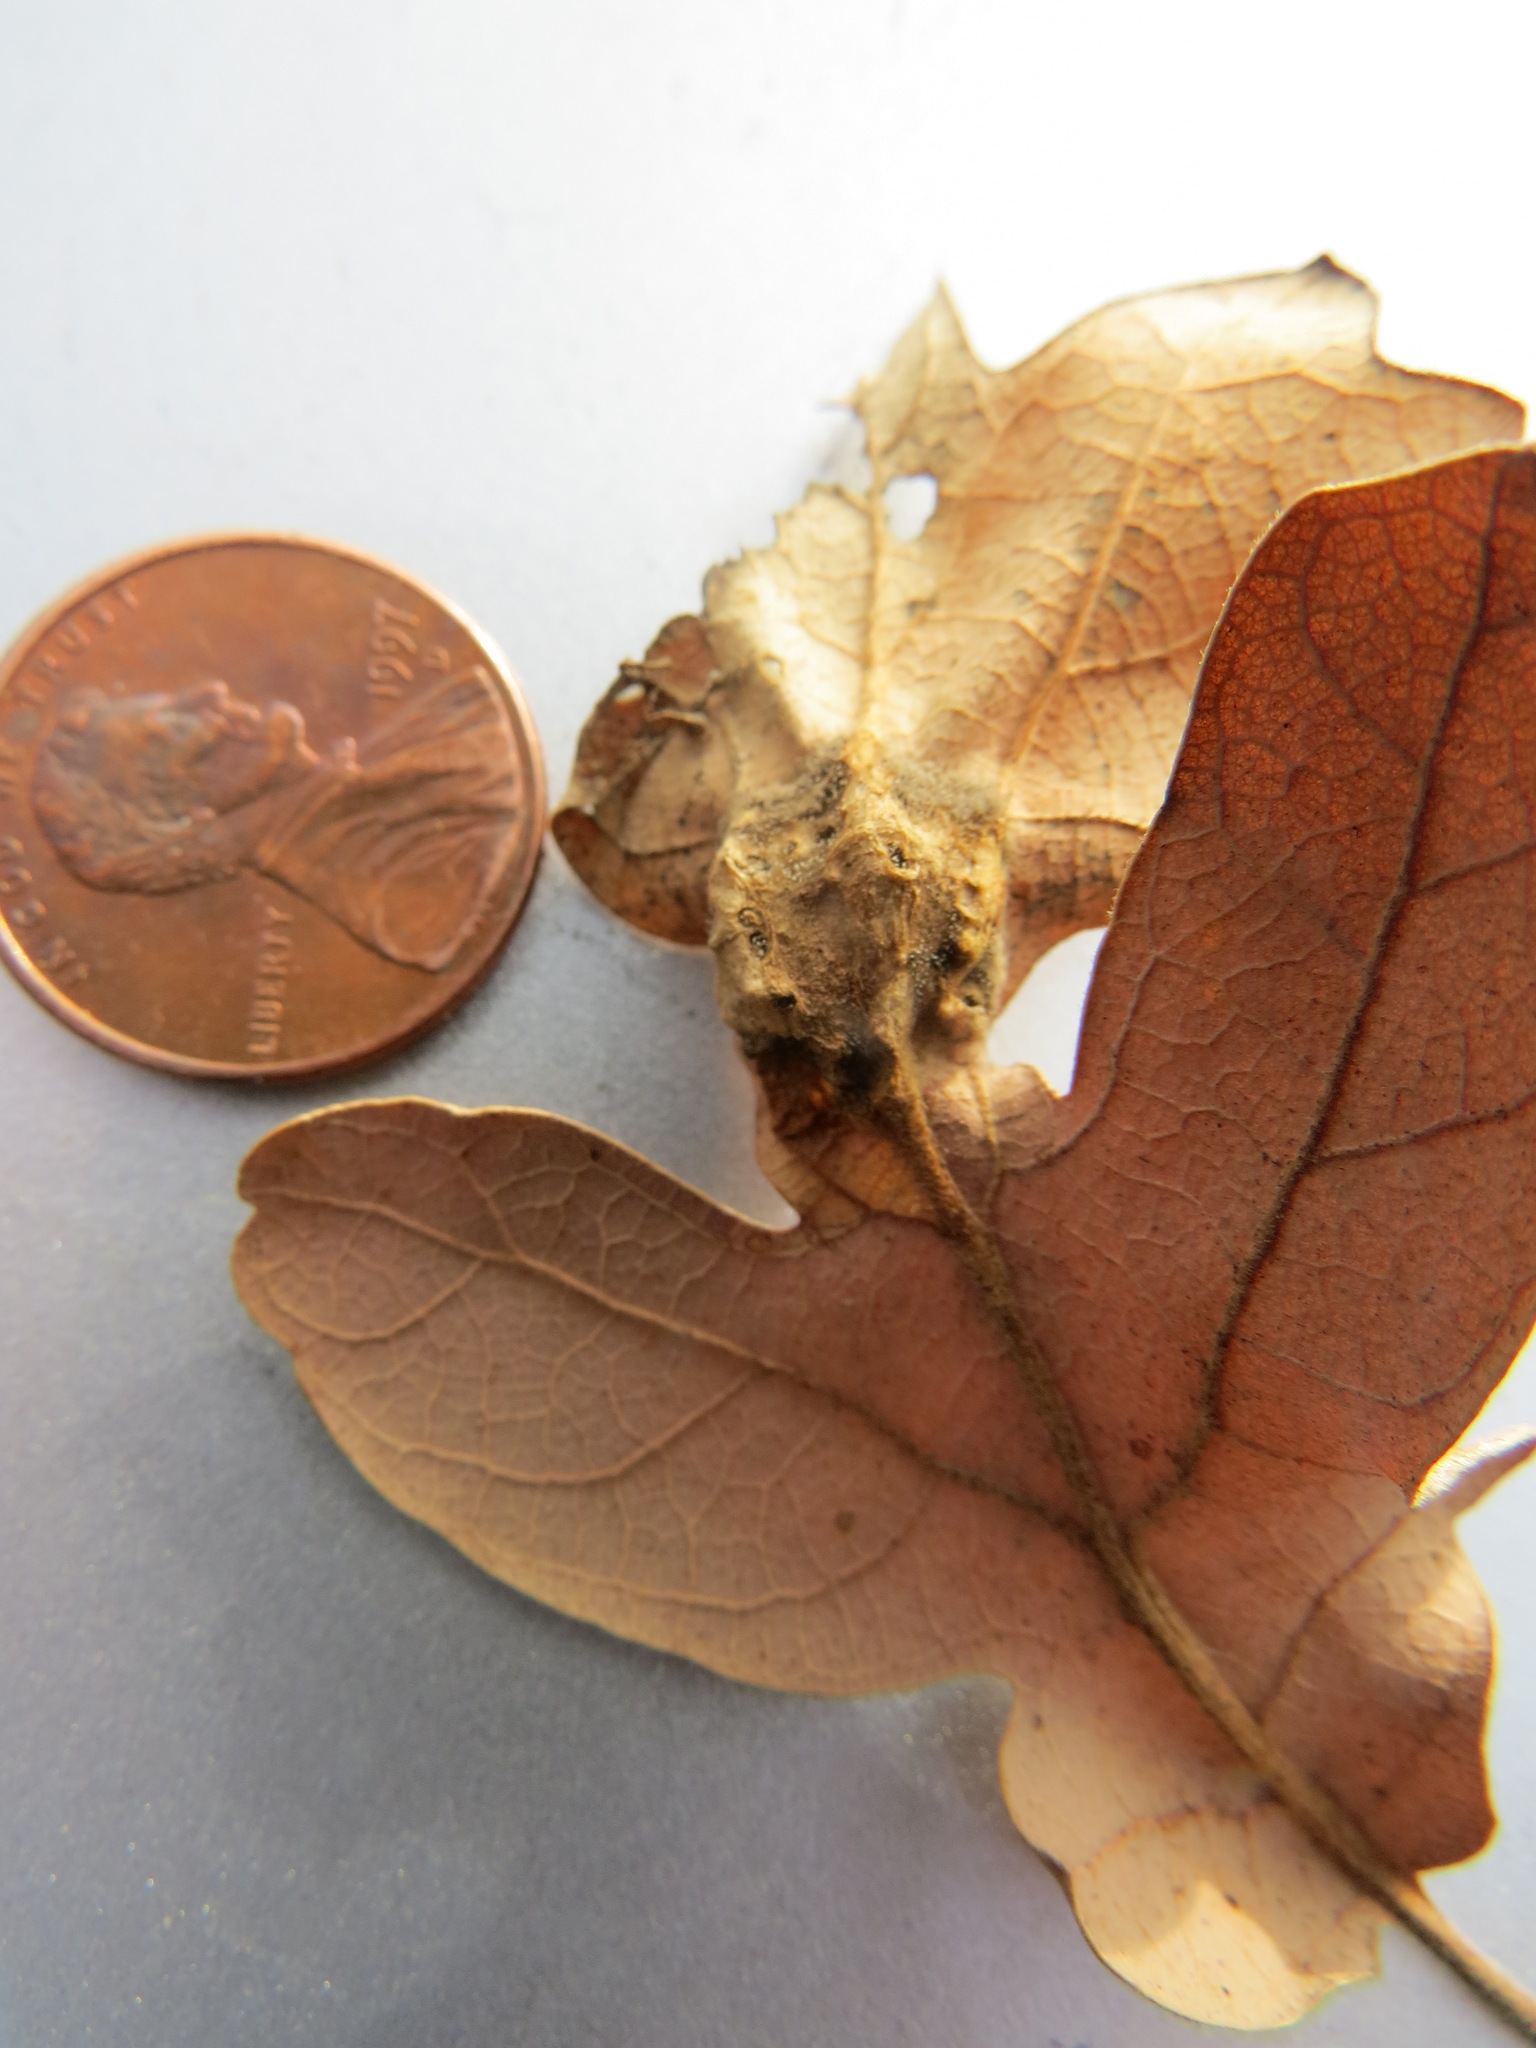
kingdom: Animalia
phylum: Arthropoda
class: Insecta
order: Hymenoptera
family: Cynipidae
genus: Neuroterus
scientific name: Neuroterus
